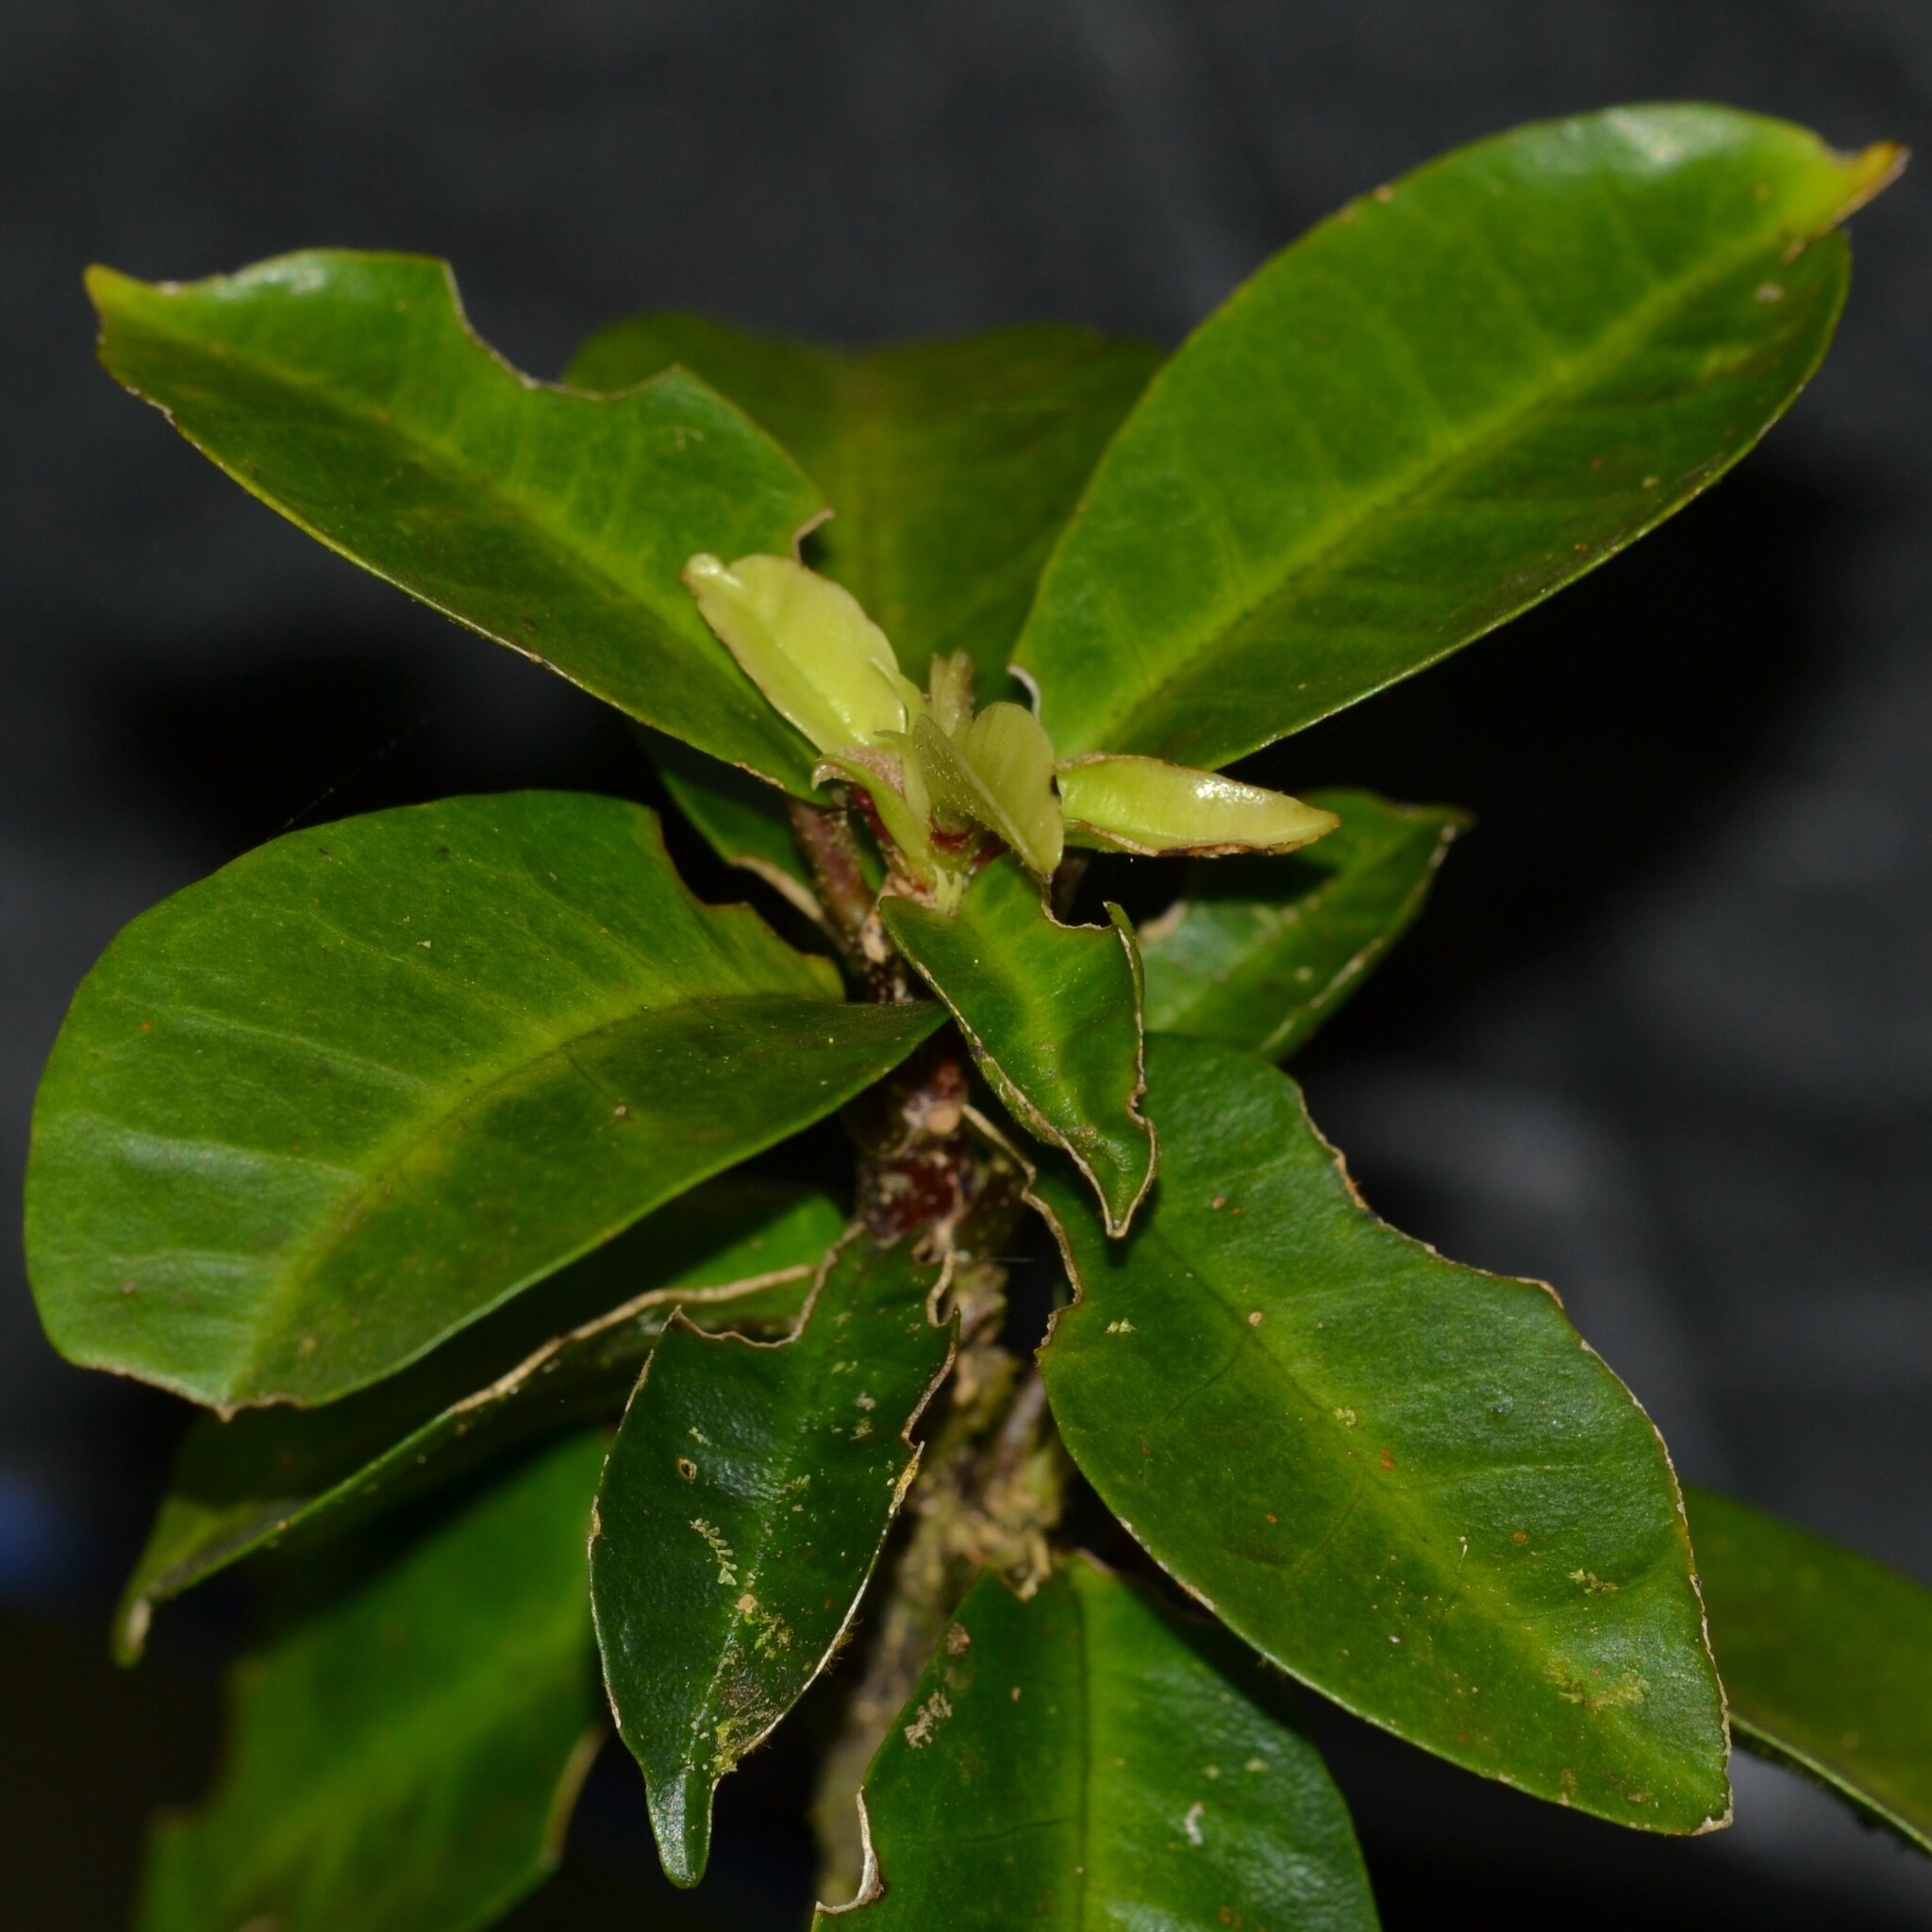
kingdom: Plantae
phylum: Tracheophyta
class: Magnoliopsida
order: Malvales
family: Malvaceae
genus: Hibiscus
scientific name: Hibiscus clayi
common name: Clay's hibiscus
